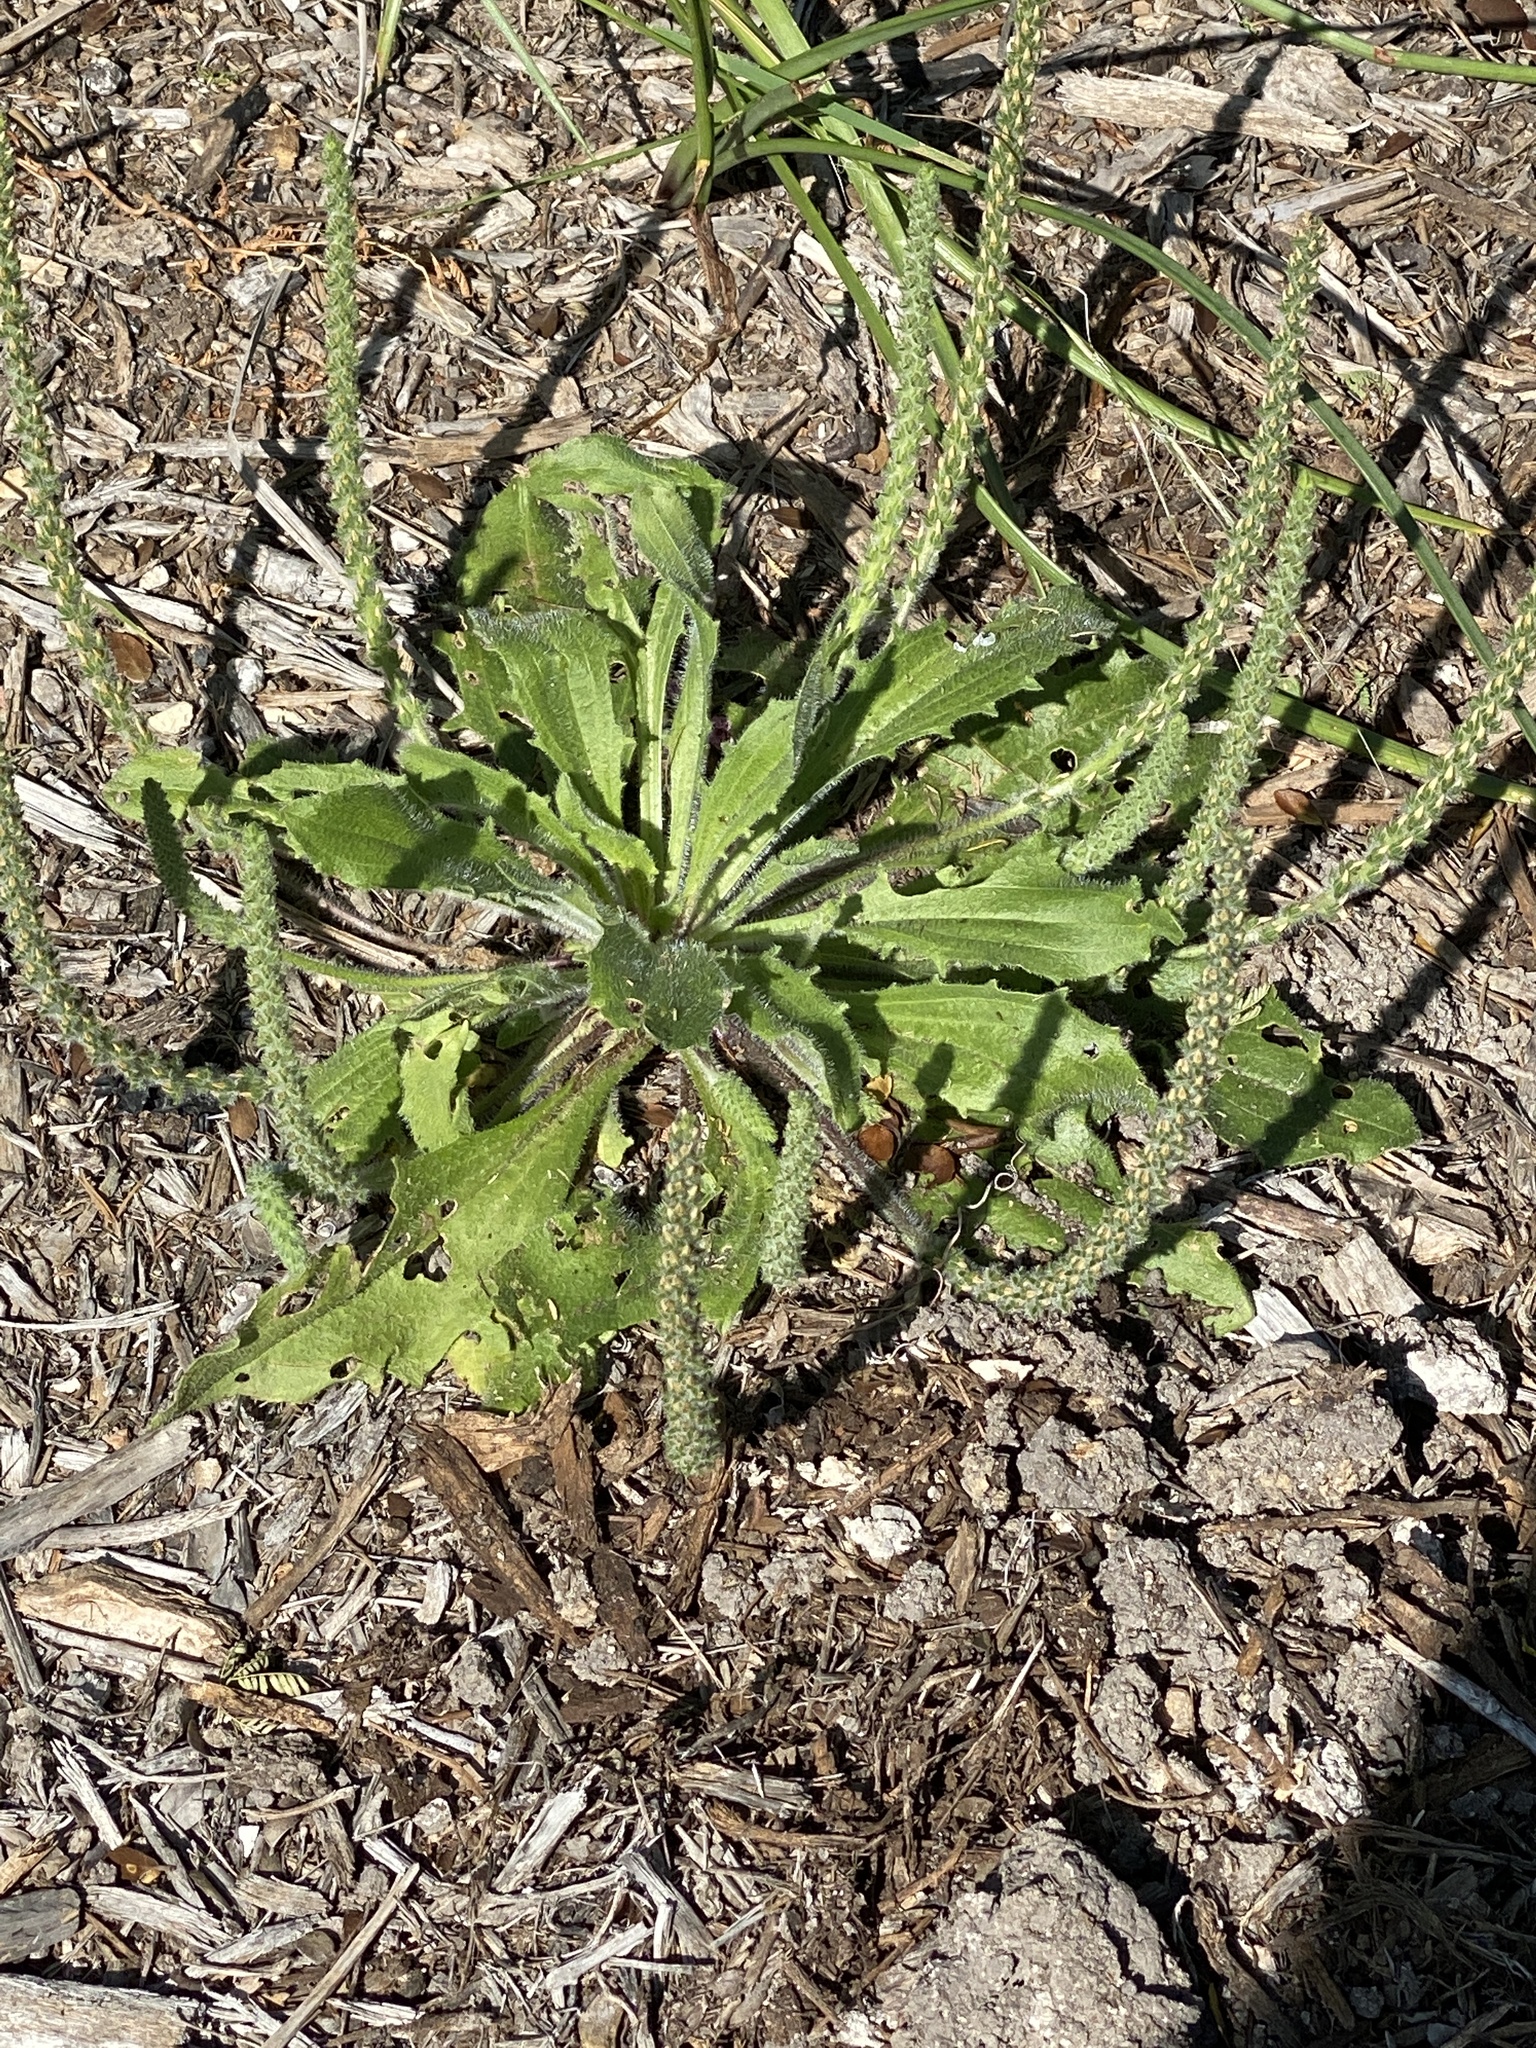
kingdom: Plantae
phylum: Tracheophyta
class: Magnoliopsida
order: Lamiales
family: Plantaginaceae
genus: Plantago
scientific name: Plantago rhodosperma
